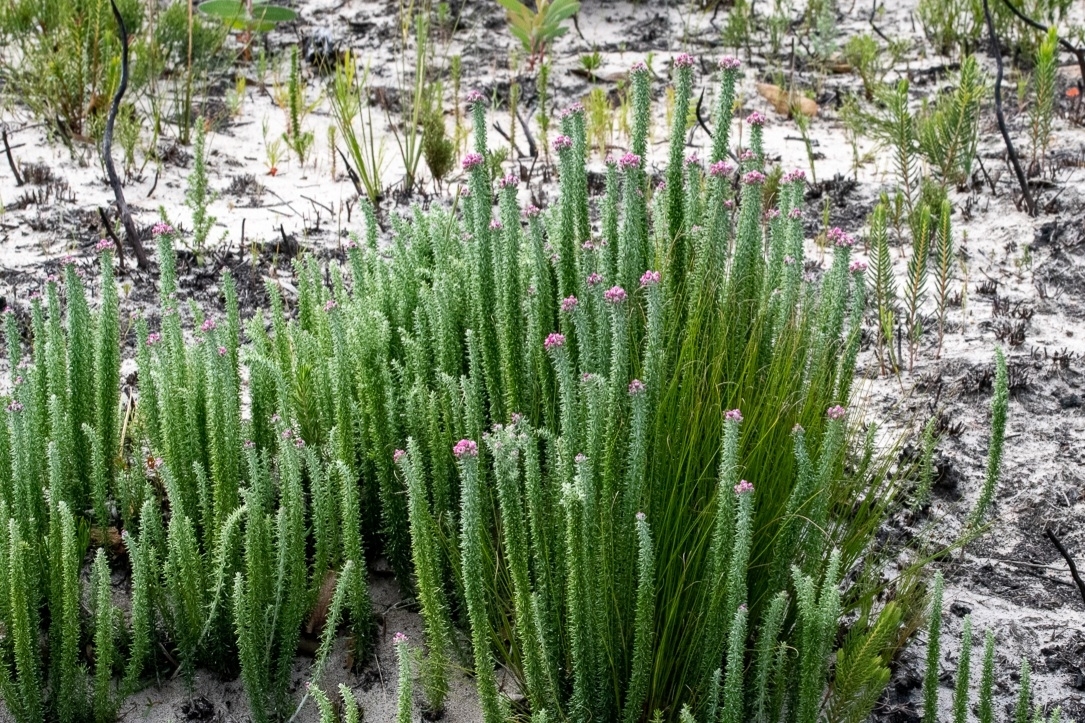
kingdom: Plantae
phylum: Tracheophyta
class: Magnoliopsida
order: Asterales
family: Asteraceae
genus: Lachnospermum
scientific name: Lachnospermum umbellatum
